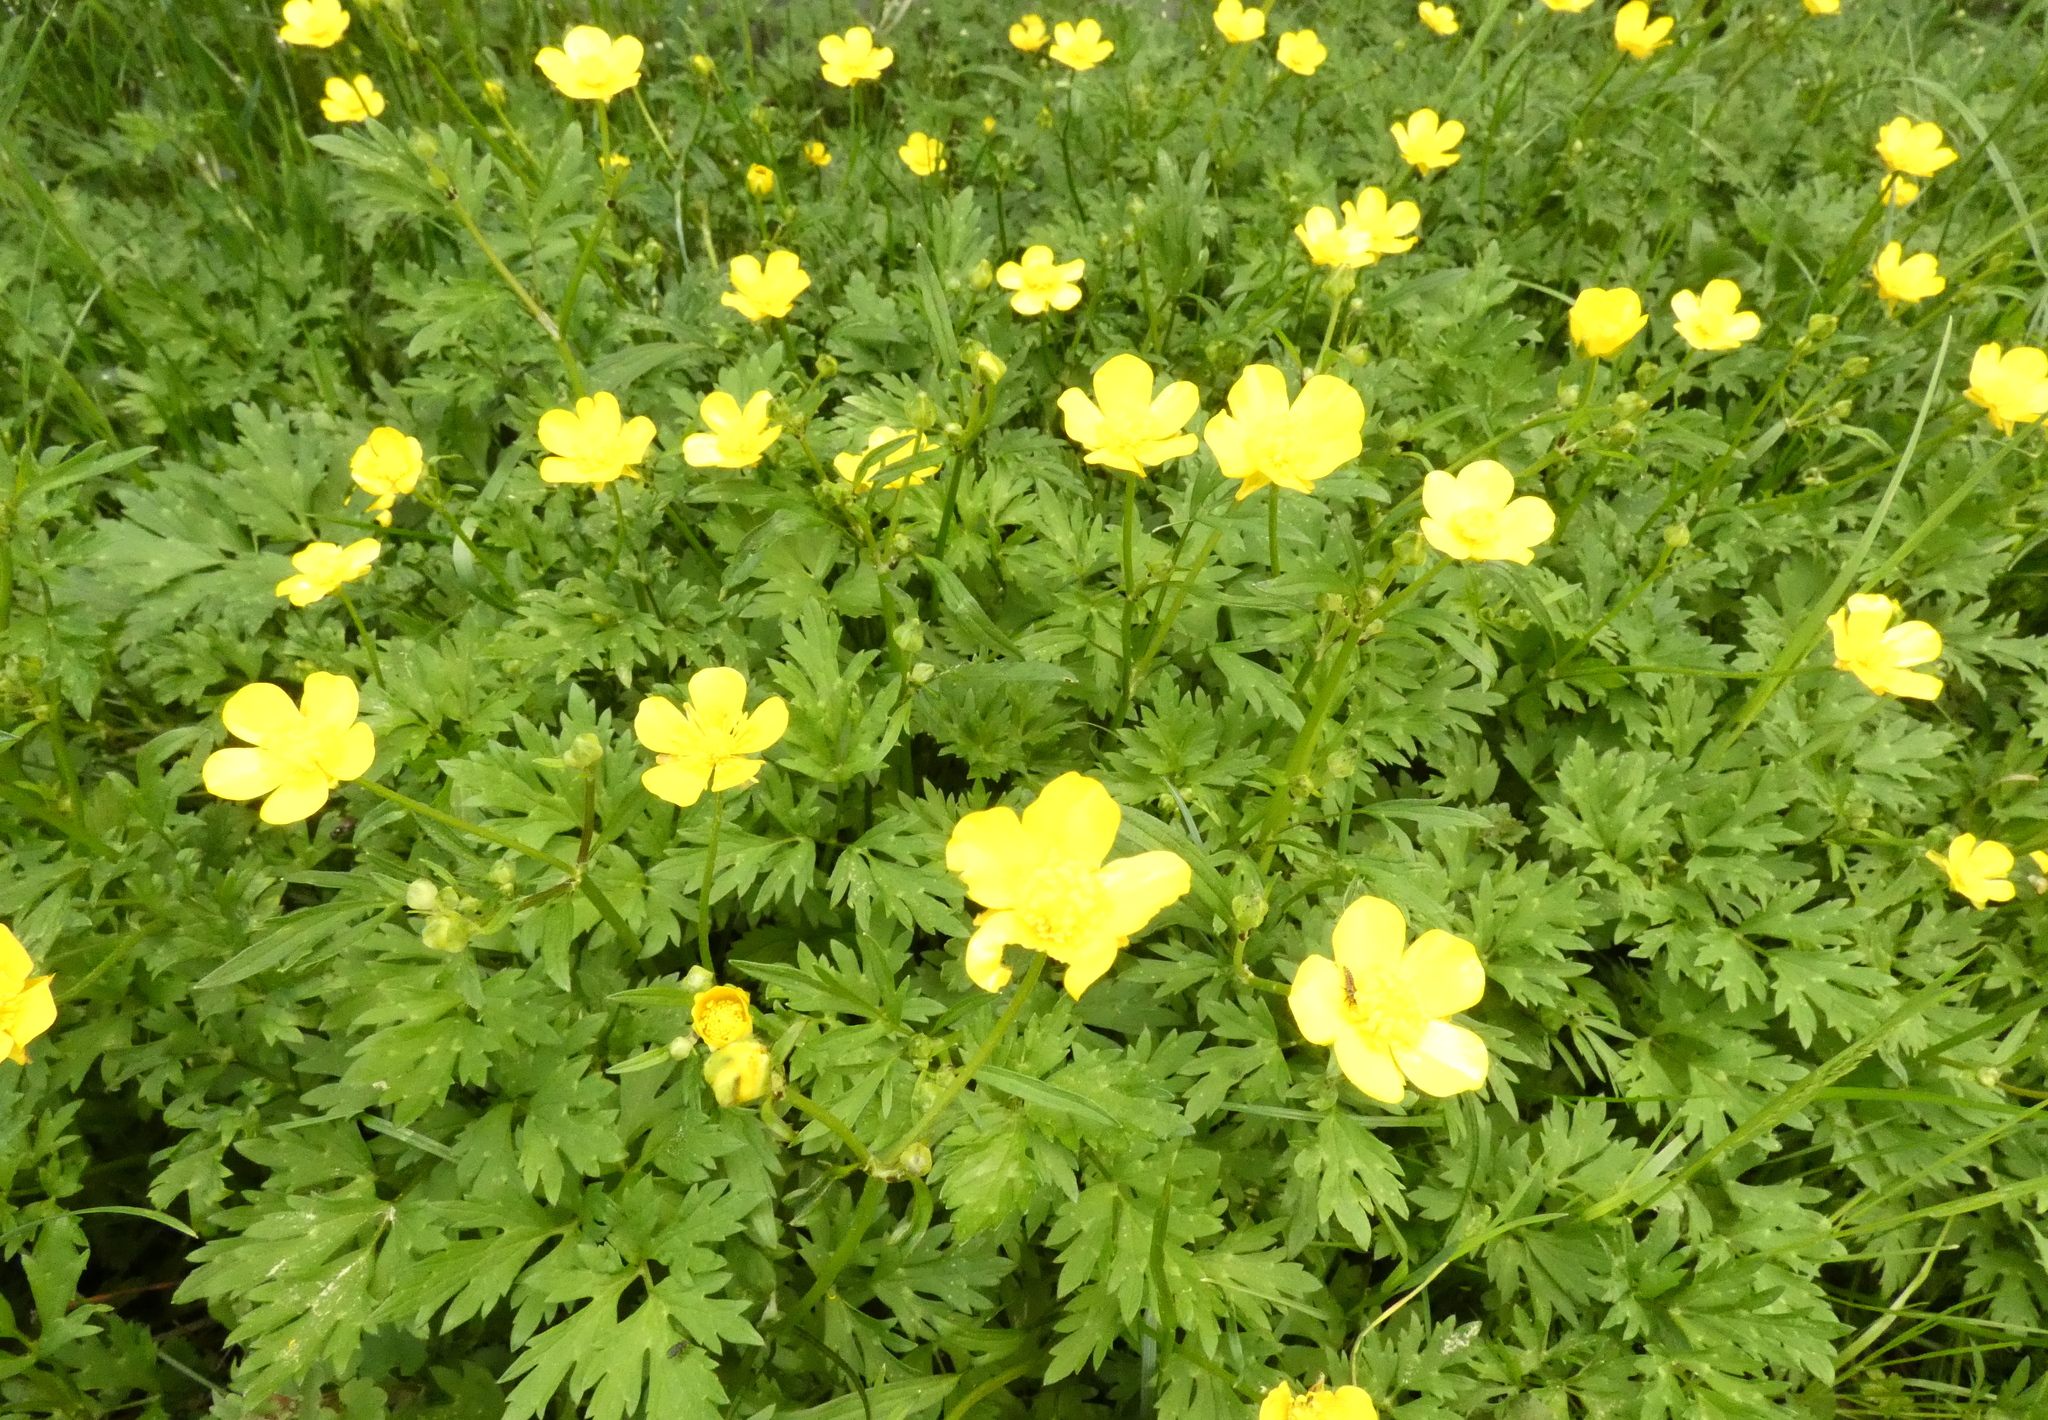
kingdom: Plantae
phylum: Tracheophyta
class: Magnoliopsida
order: Ranunculales
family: Ranunculaceae
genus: Ranunculus
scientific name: Ranunculus repens
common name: Creeping buttercup
